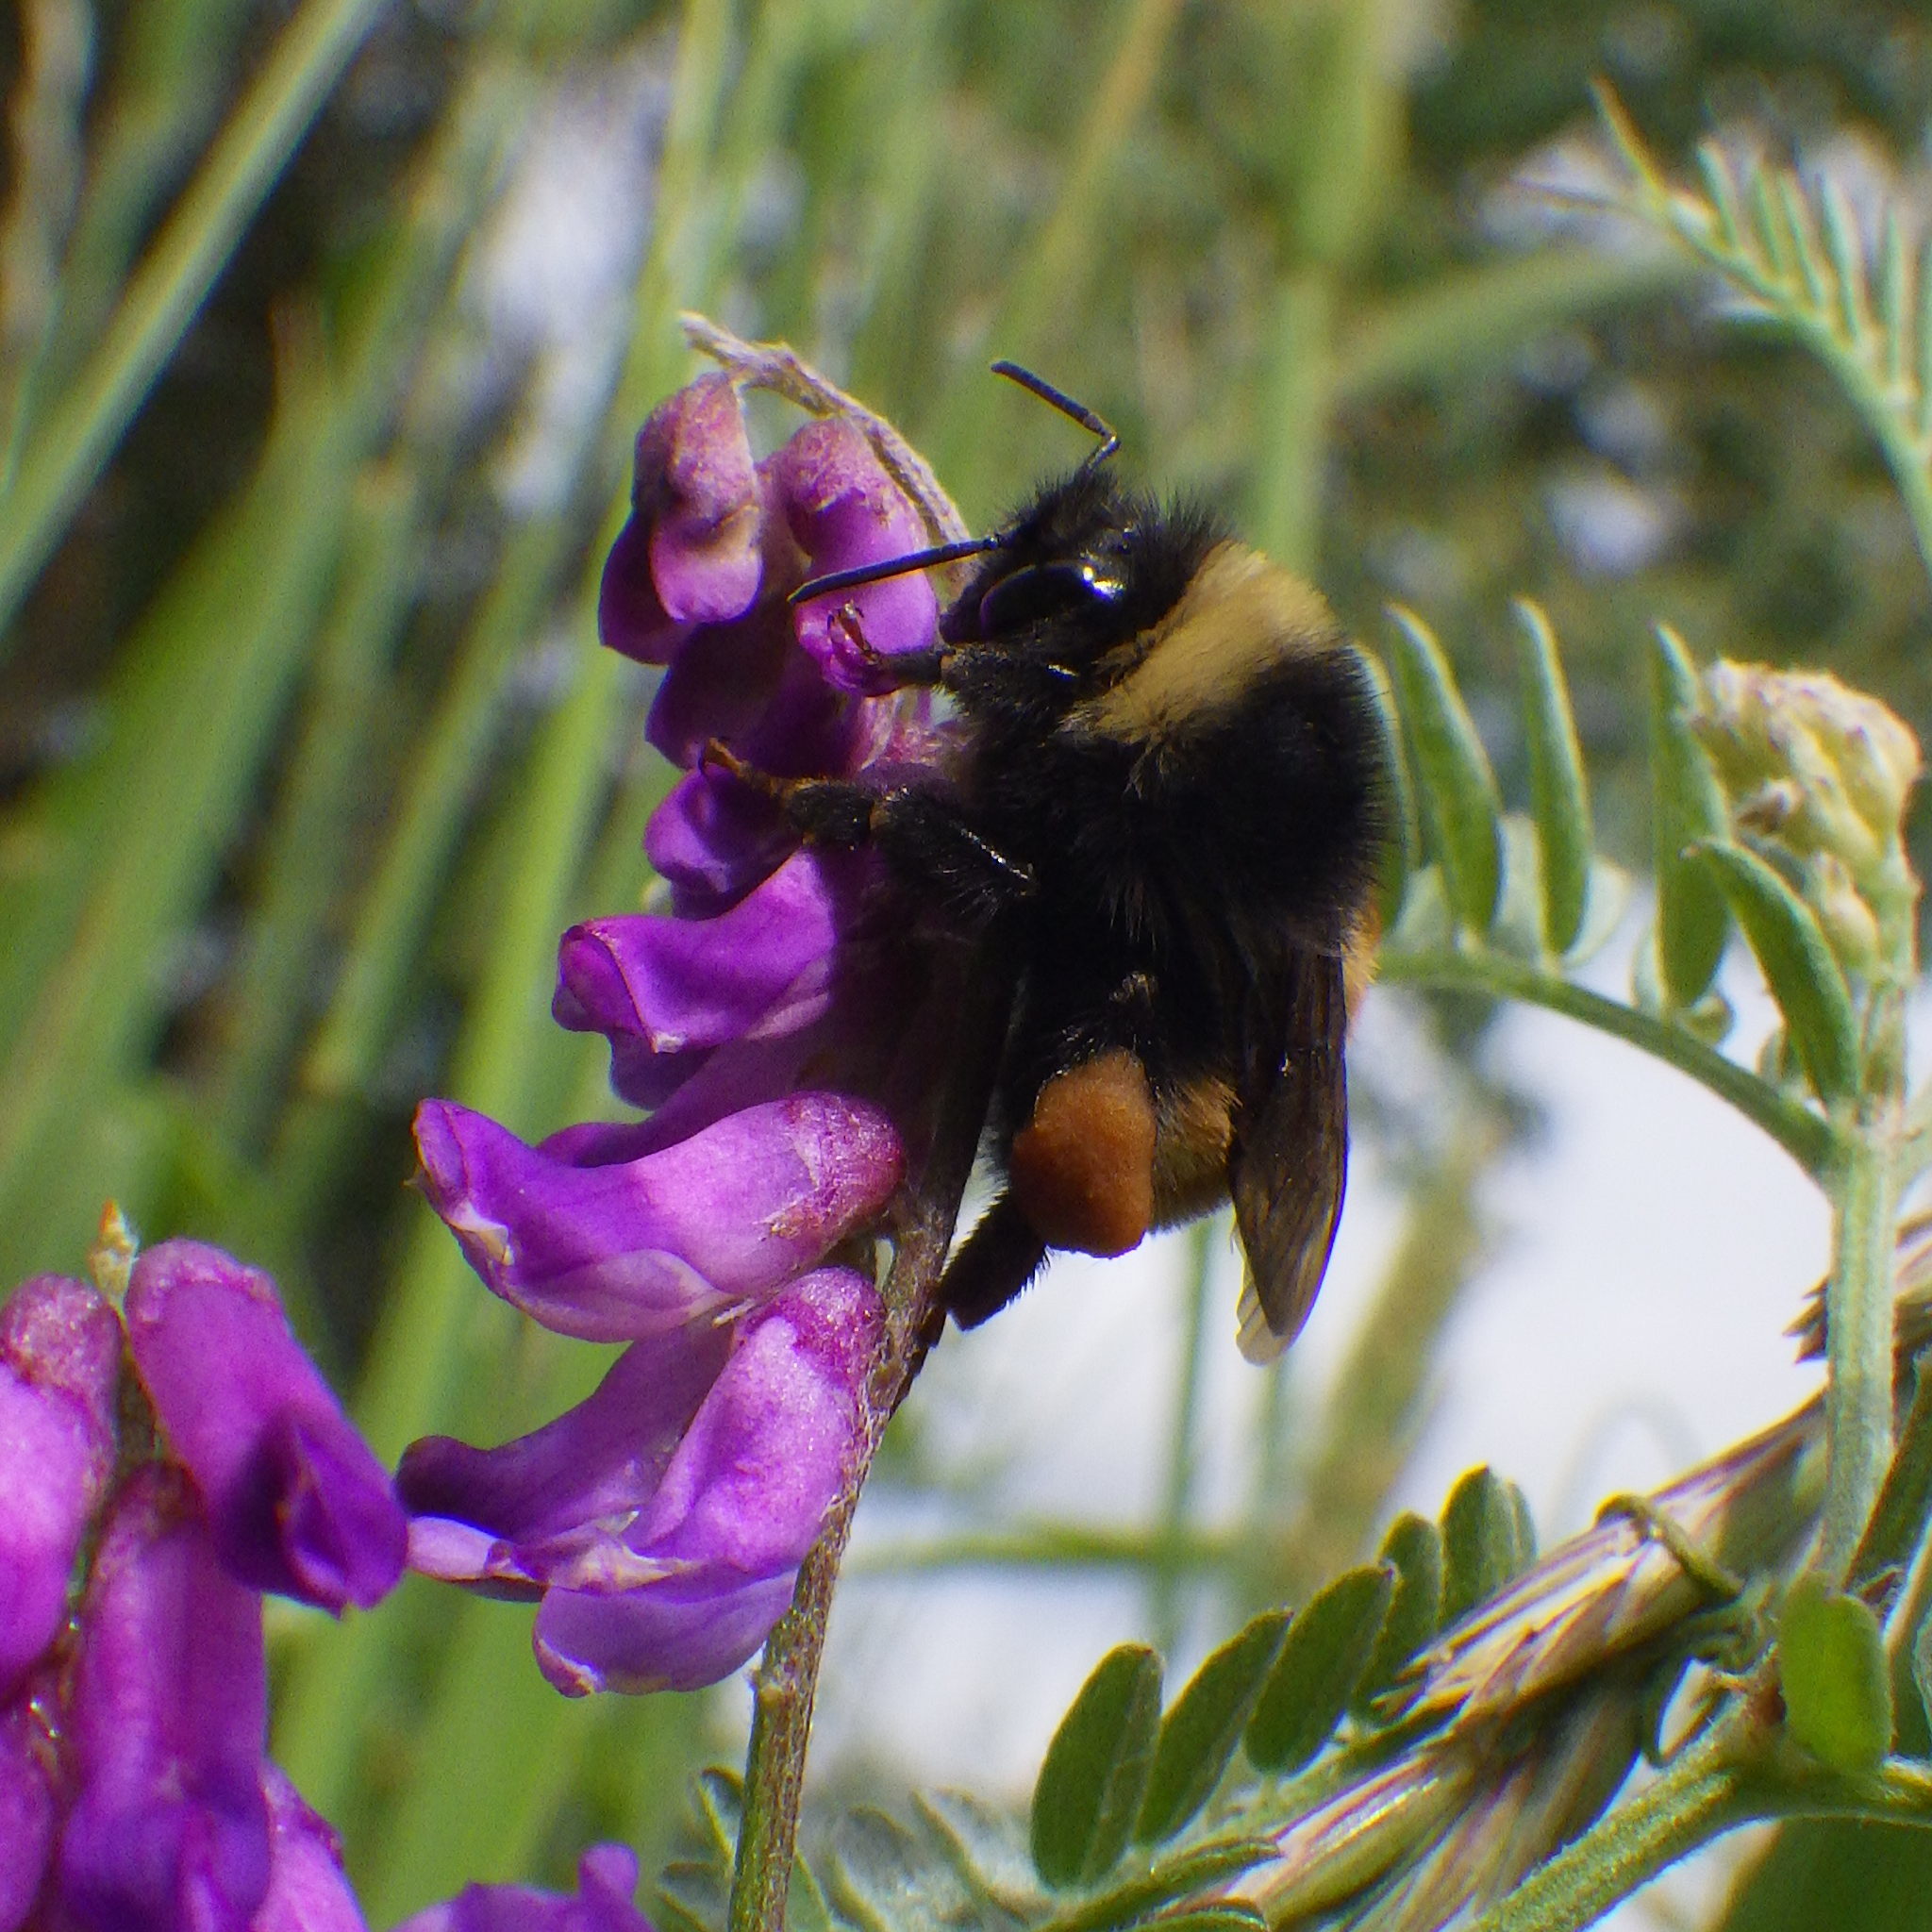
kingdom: Animalia
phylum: Arthropoda
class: Insecta
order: Hymenoptera
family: Apidae
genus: Bombus
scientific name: Bombus terricola
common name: Yellow-banded bumble bee
